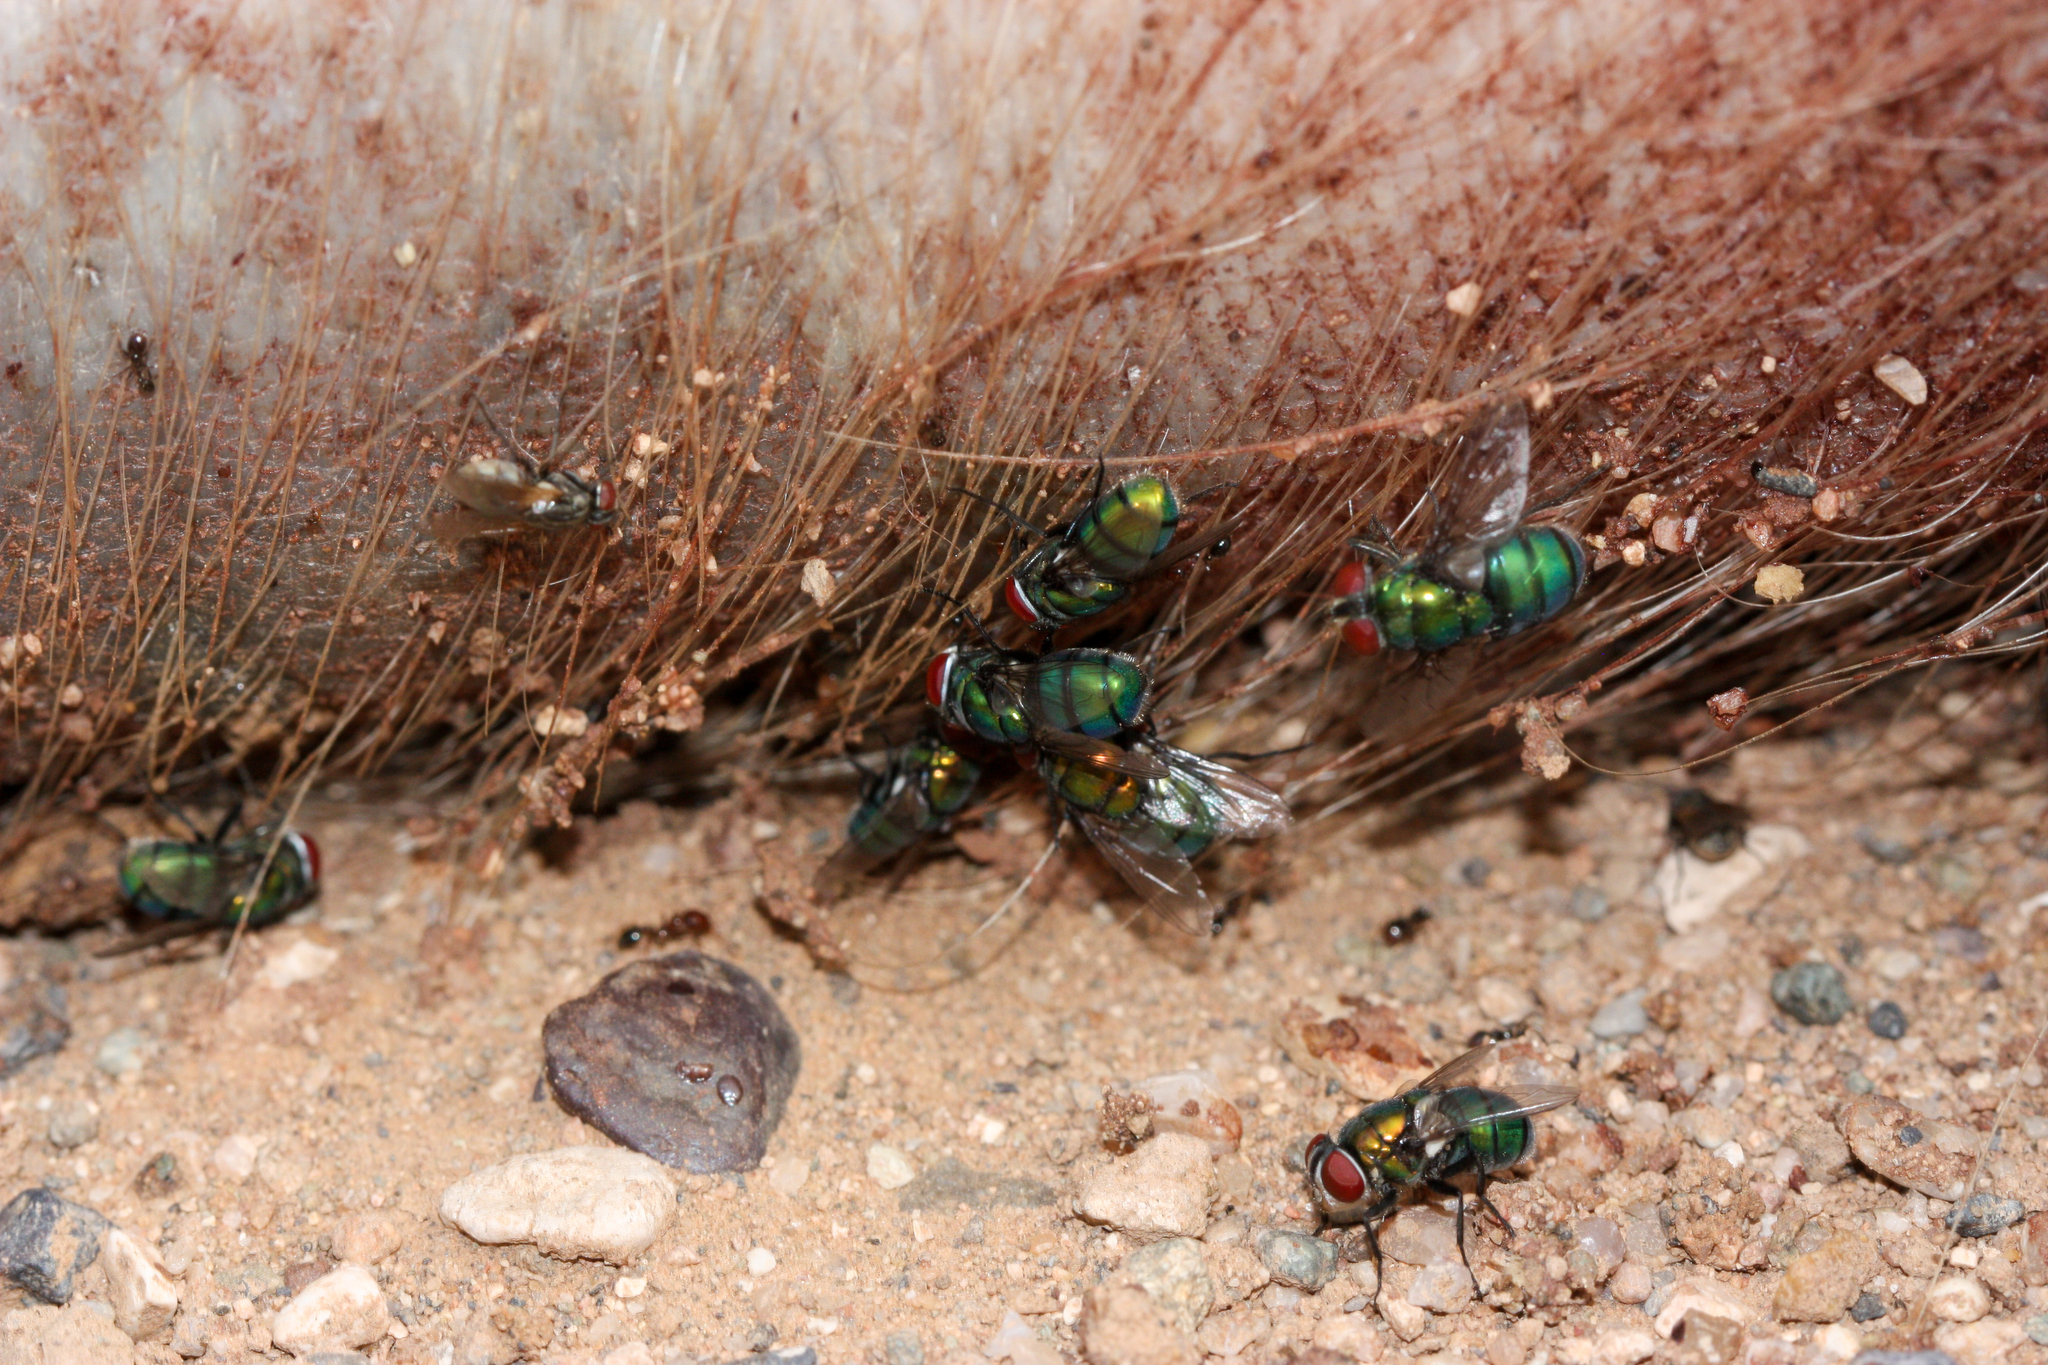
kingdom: Animalia
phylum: Arthropoda
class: Insecta
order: Diptera
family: Calliphoridae
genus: Chrysomya
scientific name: Chrysomya rufifacies
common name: Blow fly
